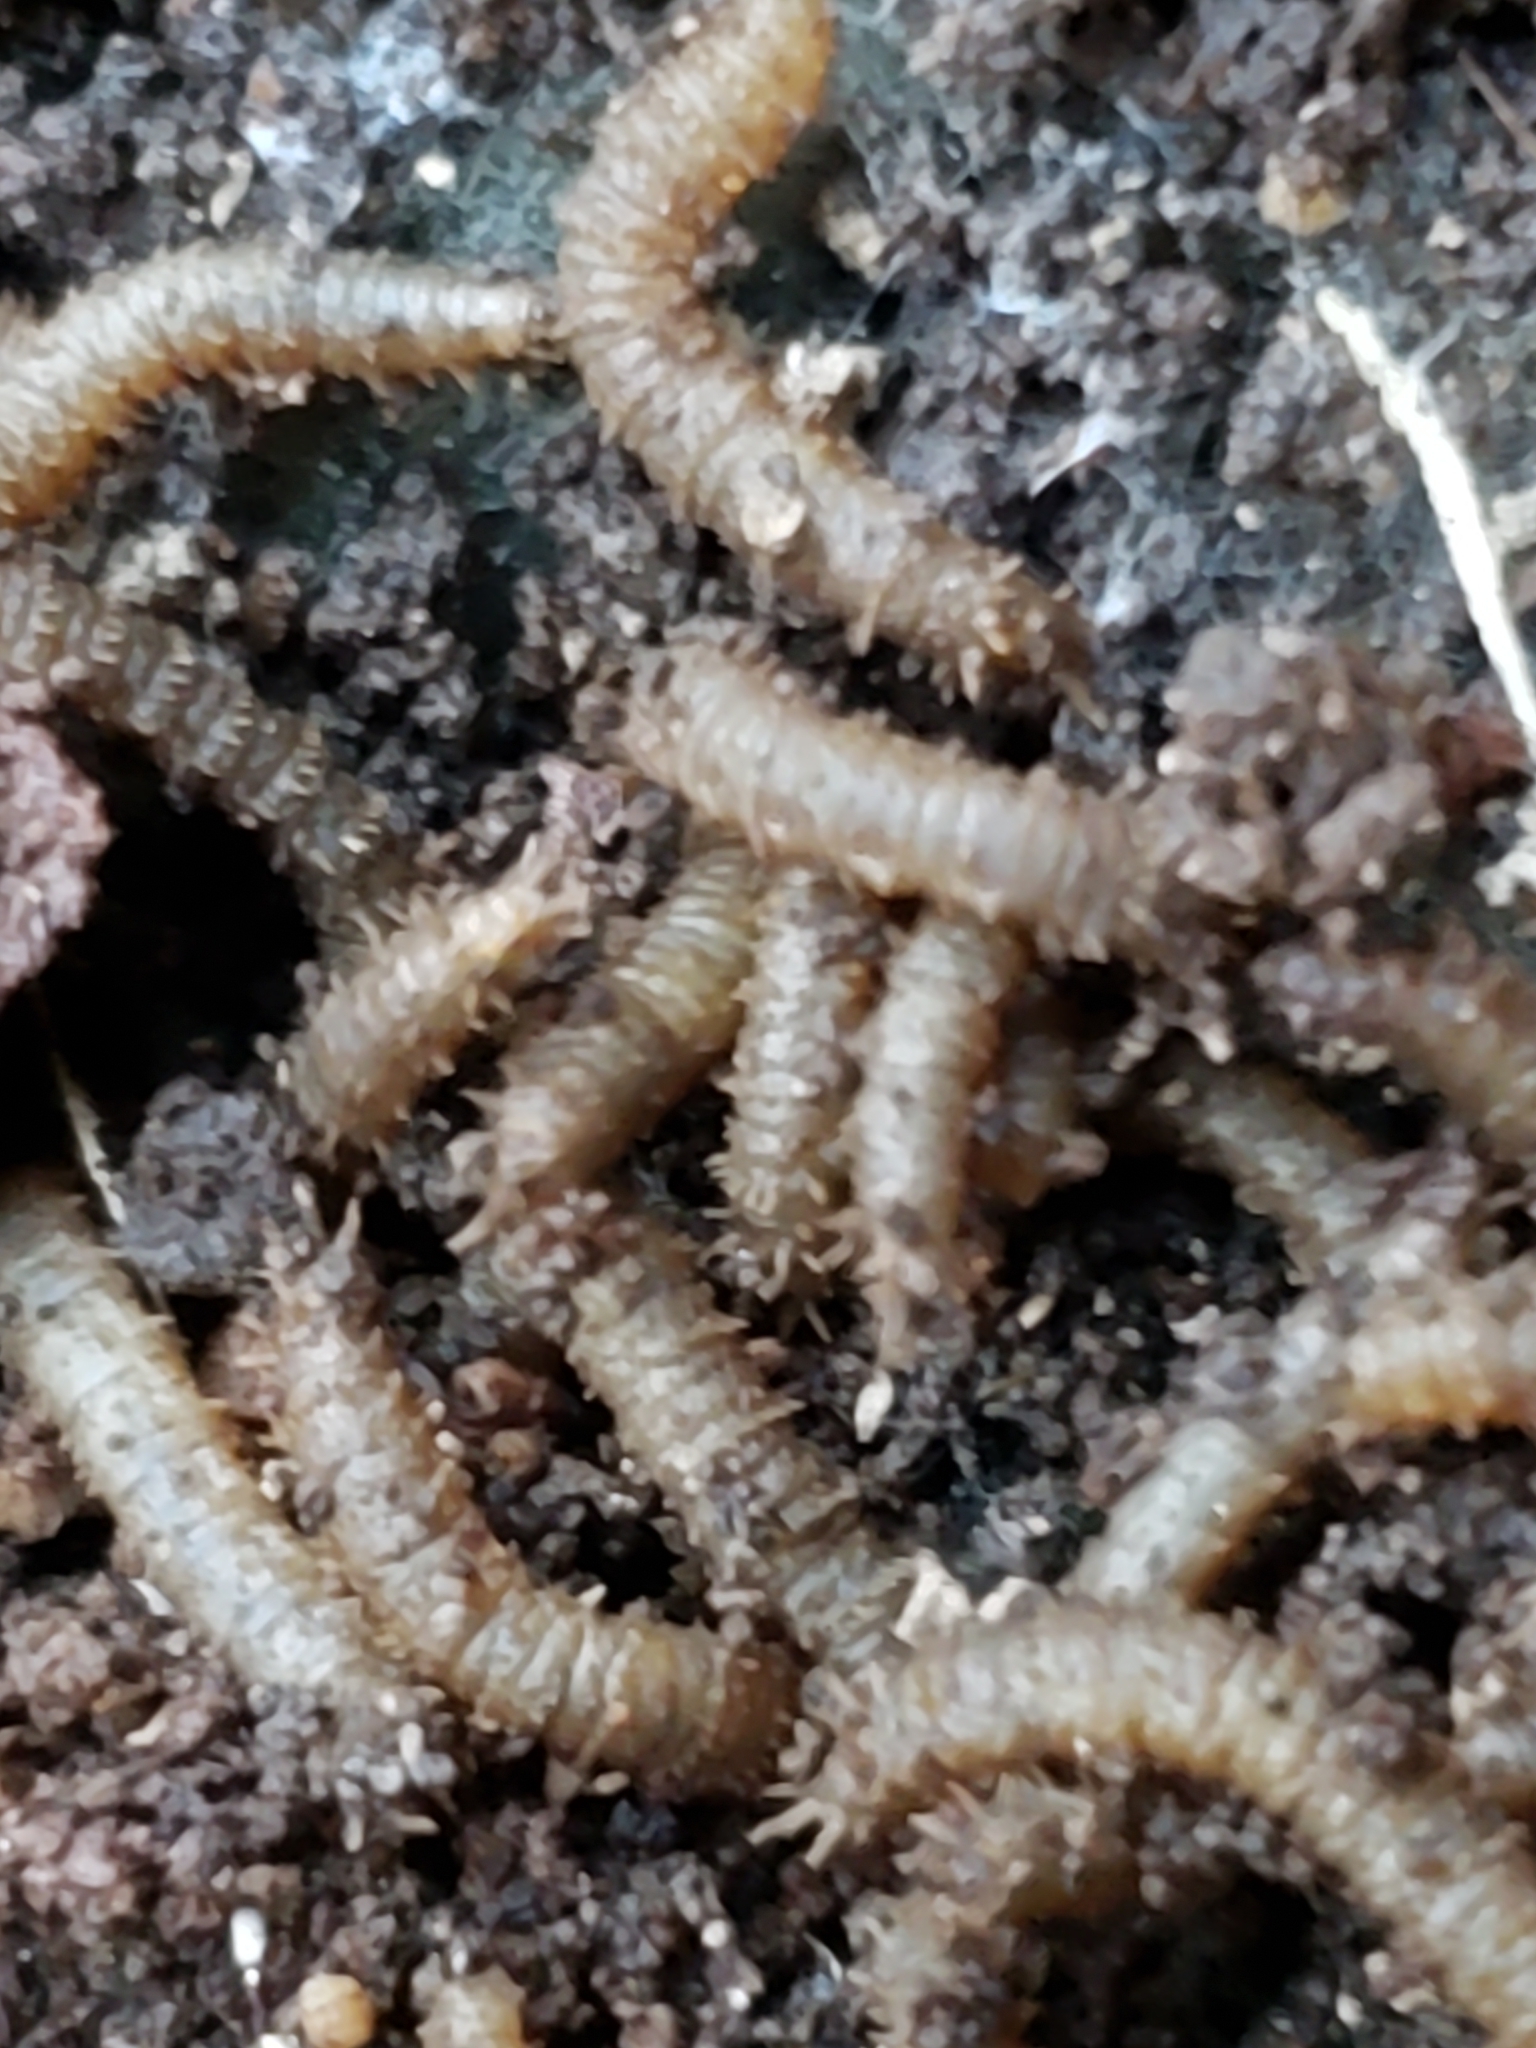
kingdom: Animalia
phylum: Arthropoda
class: Insecta
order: Diptera
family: Bibionidae
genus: Bibio
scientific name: Bibio
